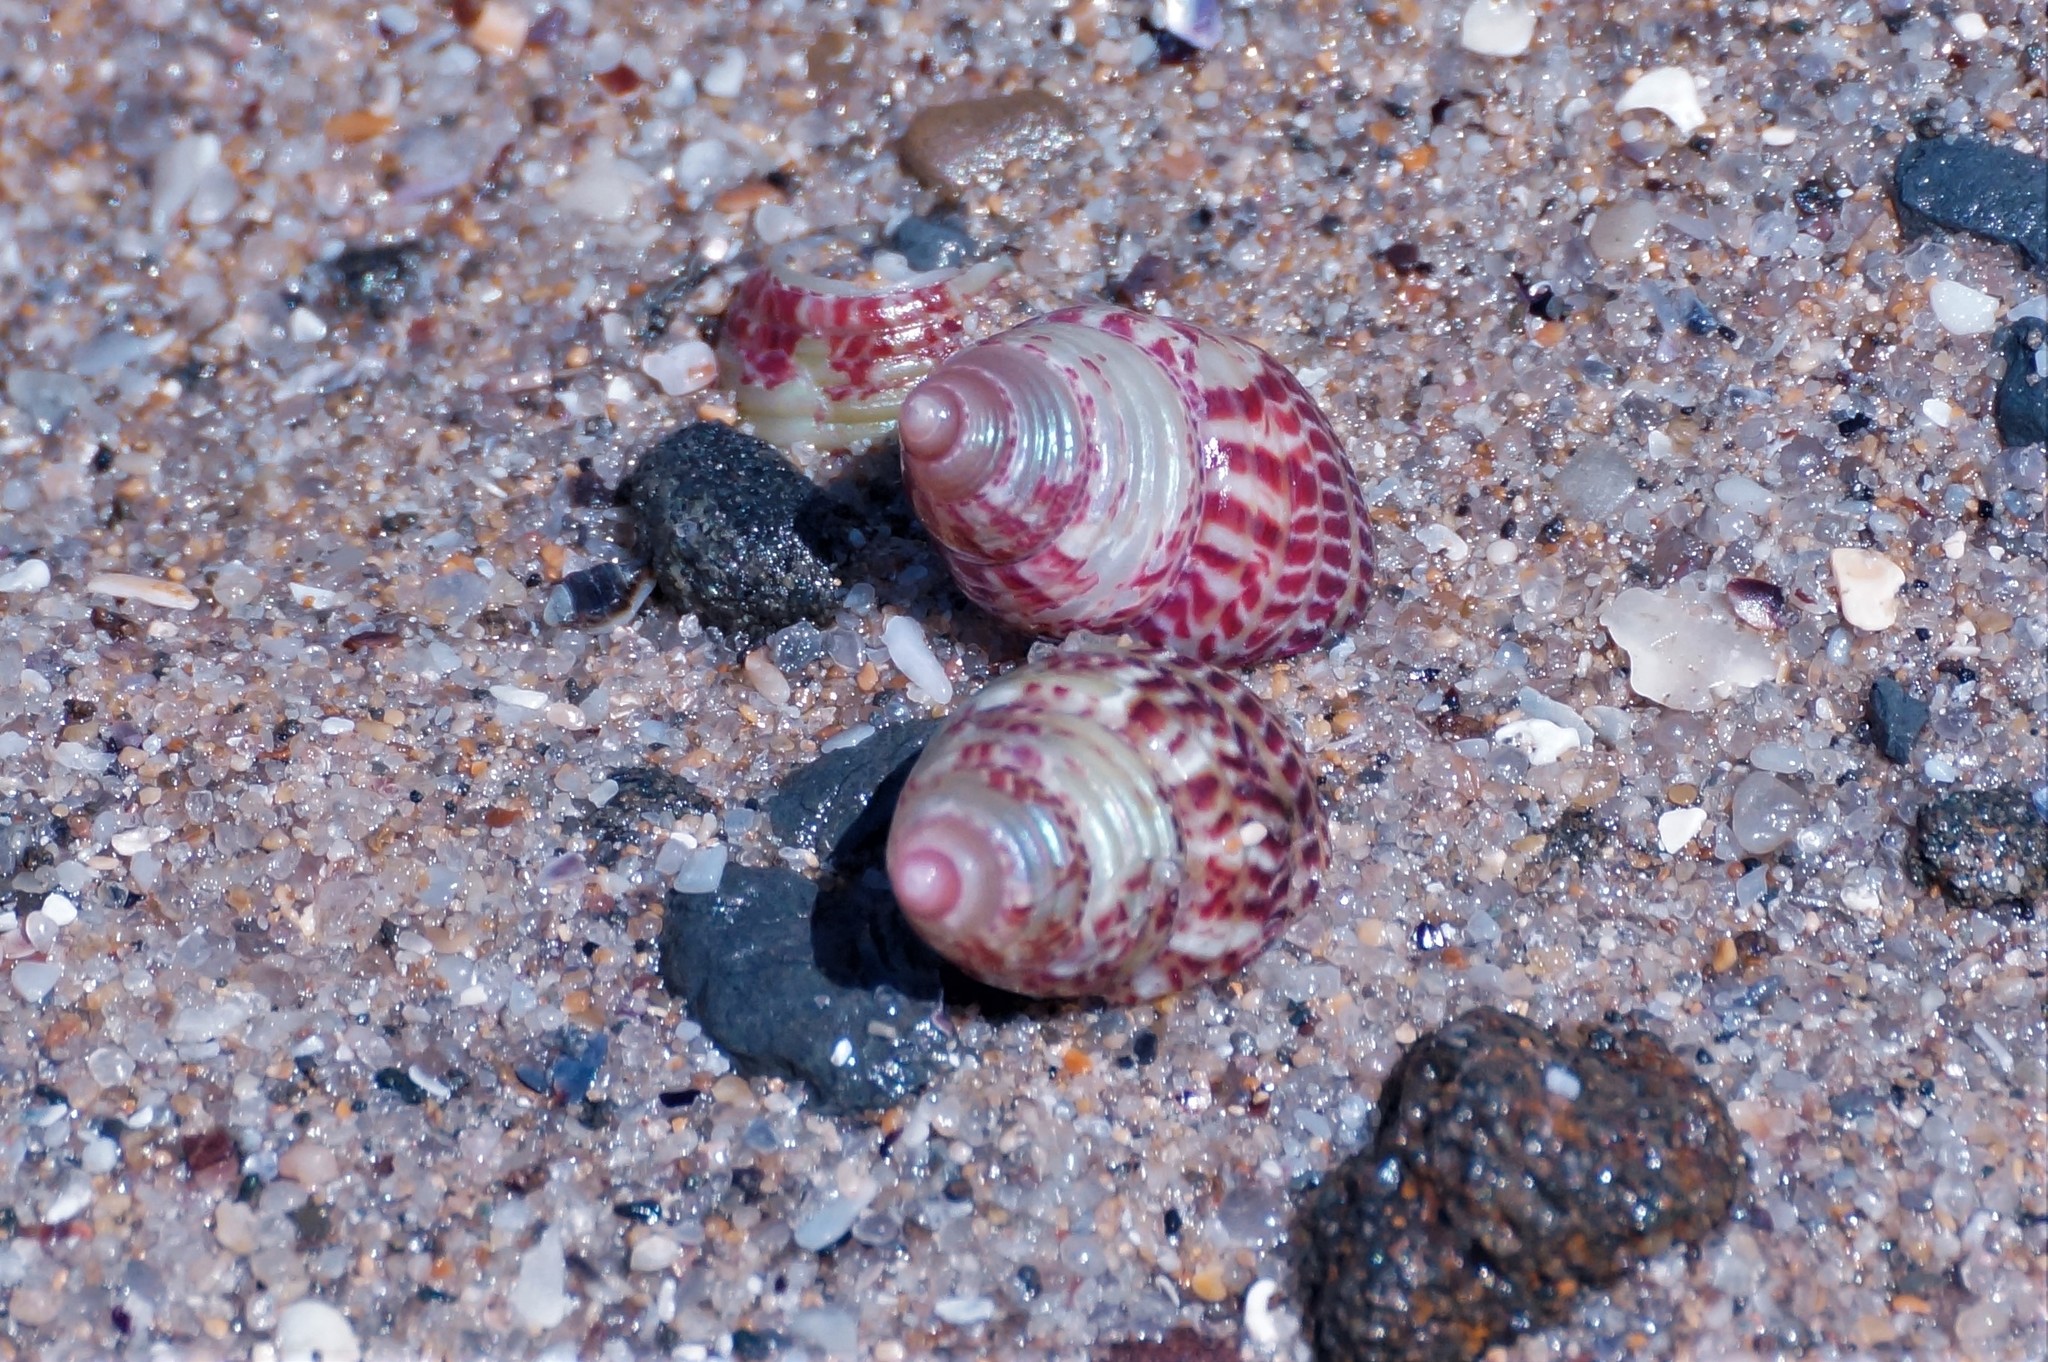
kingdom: Animalia
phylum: Mollusca
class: Gastropoda
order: Trochida
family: Trochidae
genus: Prothalotia
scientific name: Prothalotia pulcherrima
